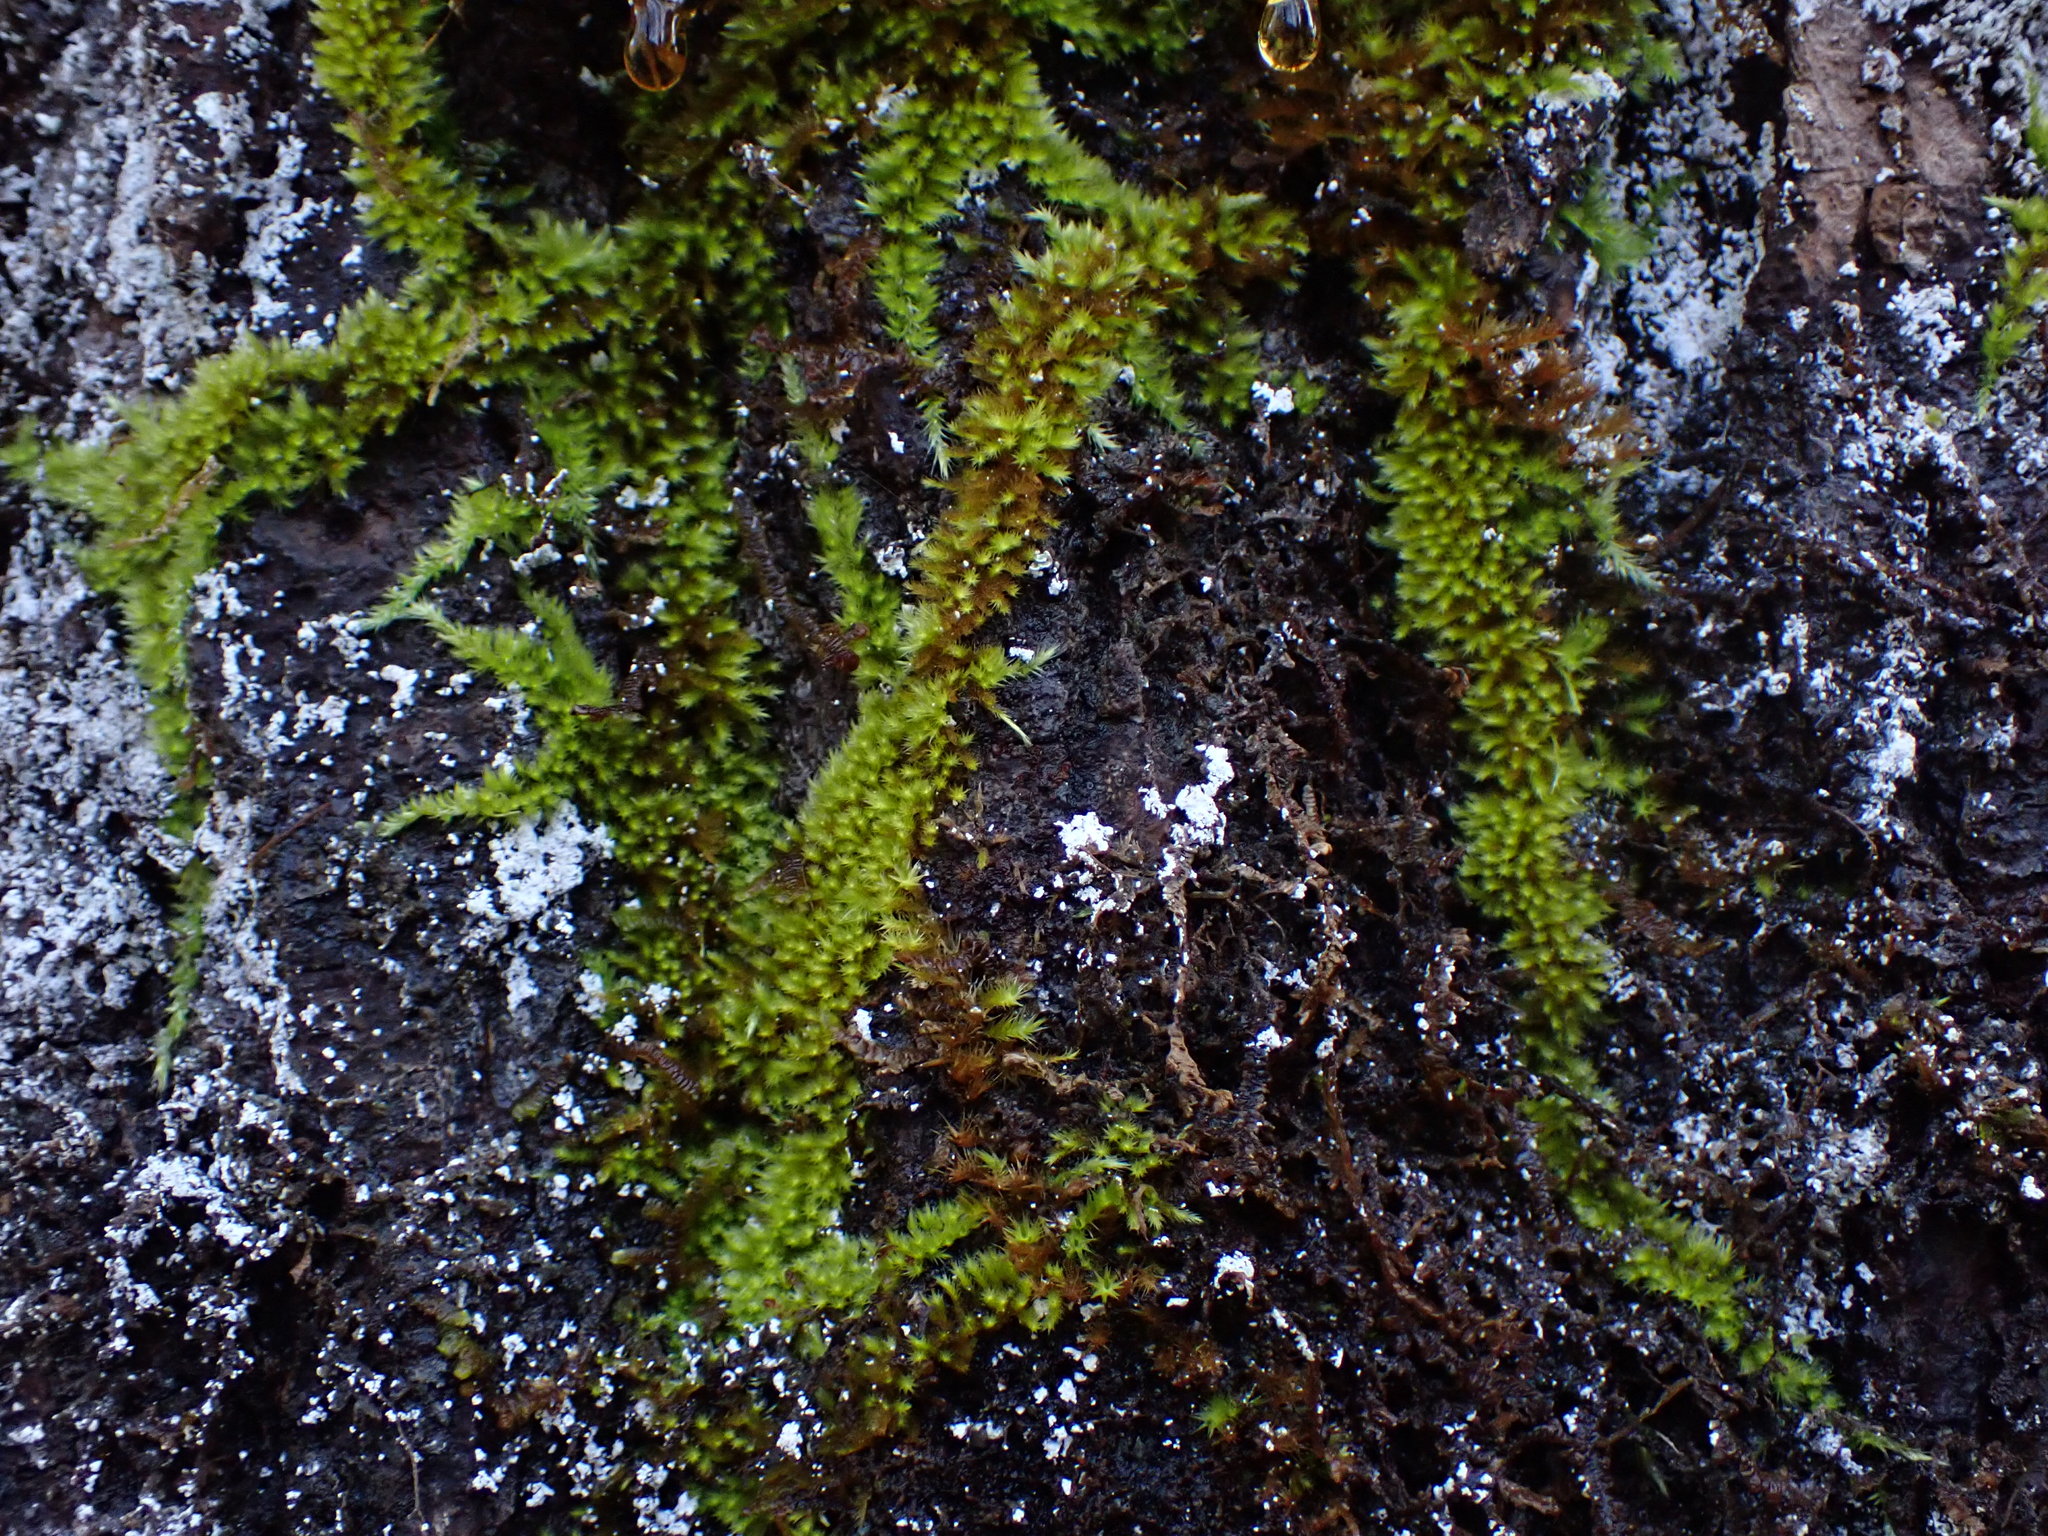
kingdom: Plantae
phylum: Bryophyta
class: Bryopsida
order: Hypnales
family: Brachytheciaceae
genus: Homalothecium
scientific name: Homalothecium nuttallii
